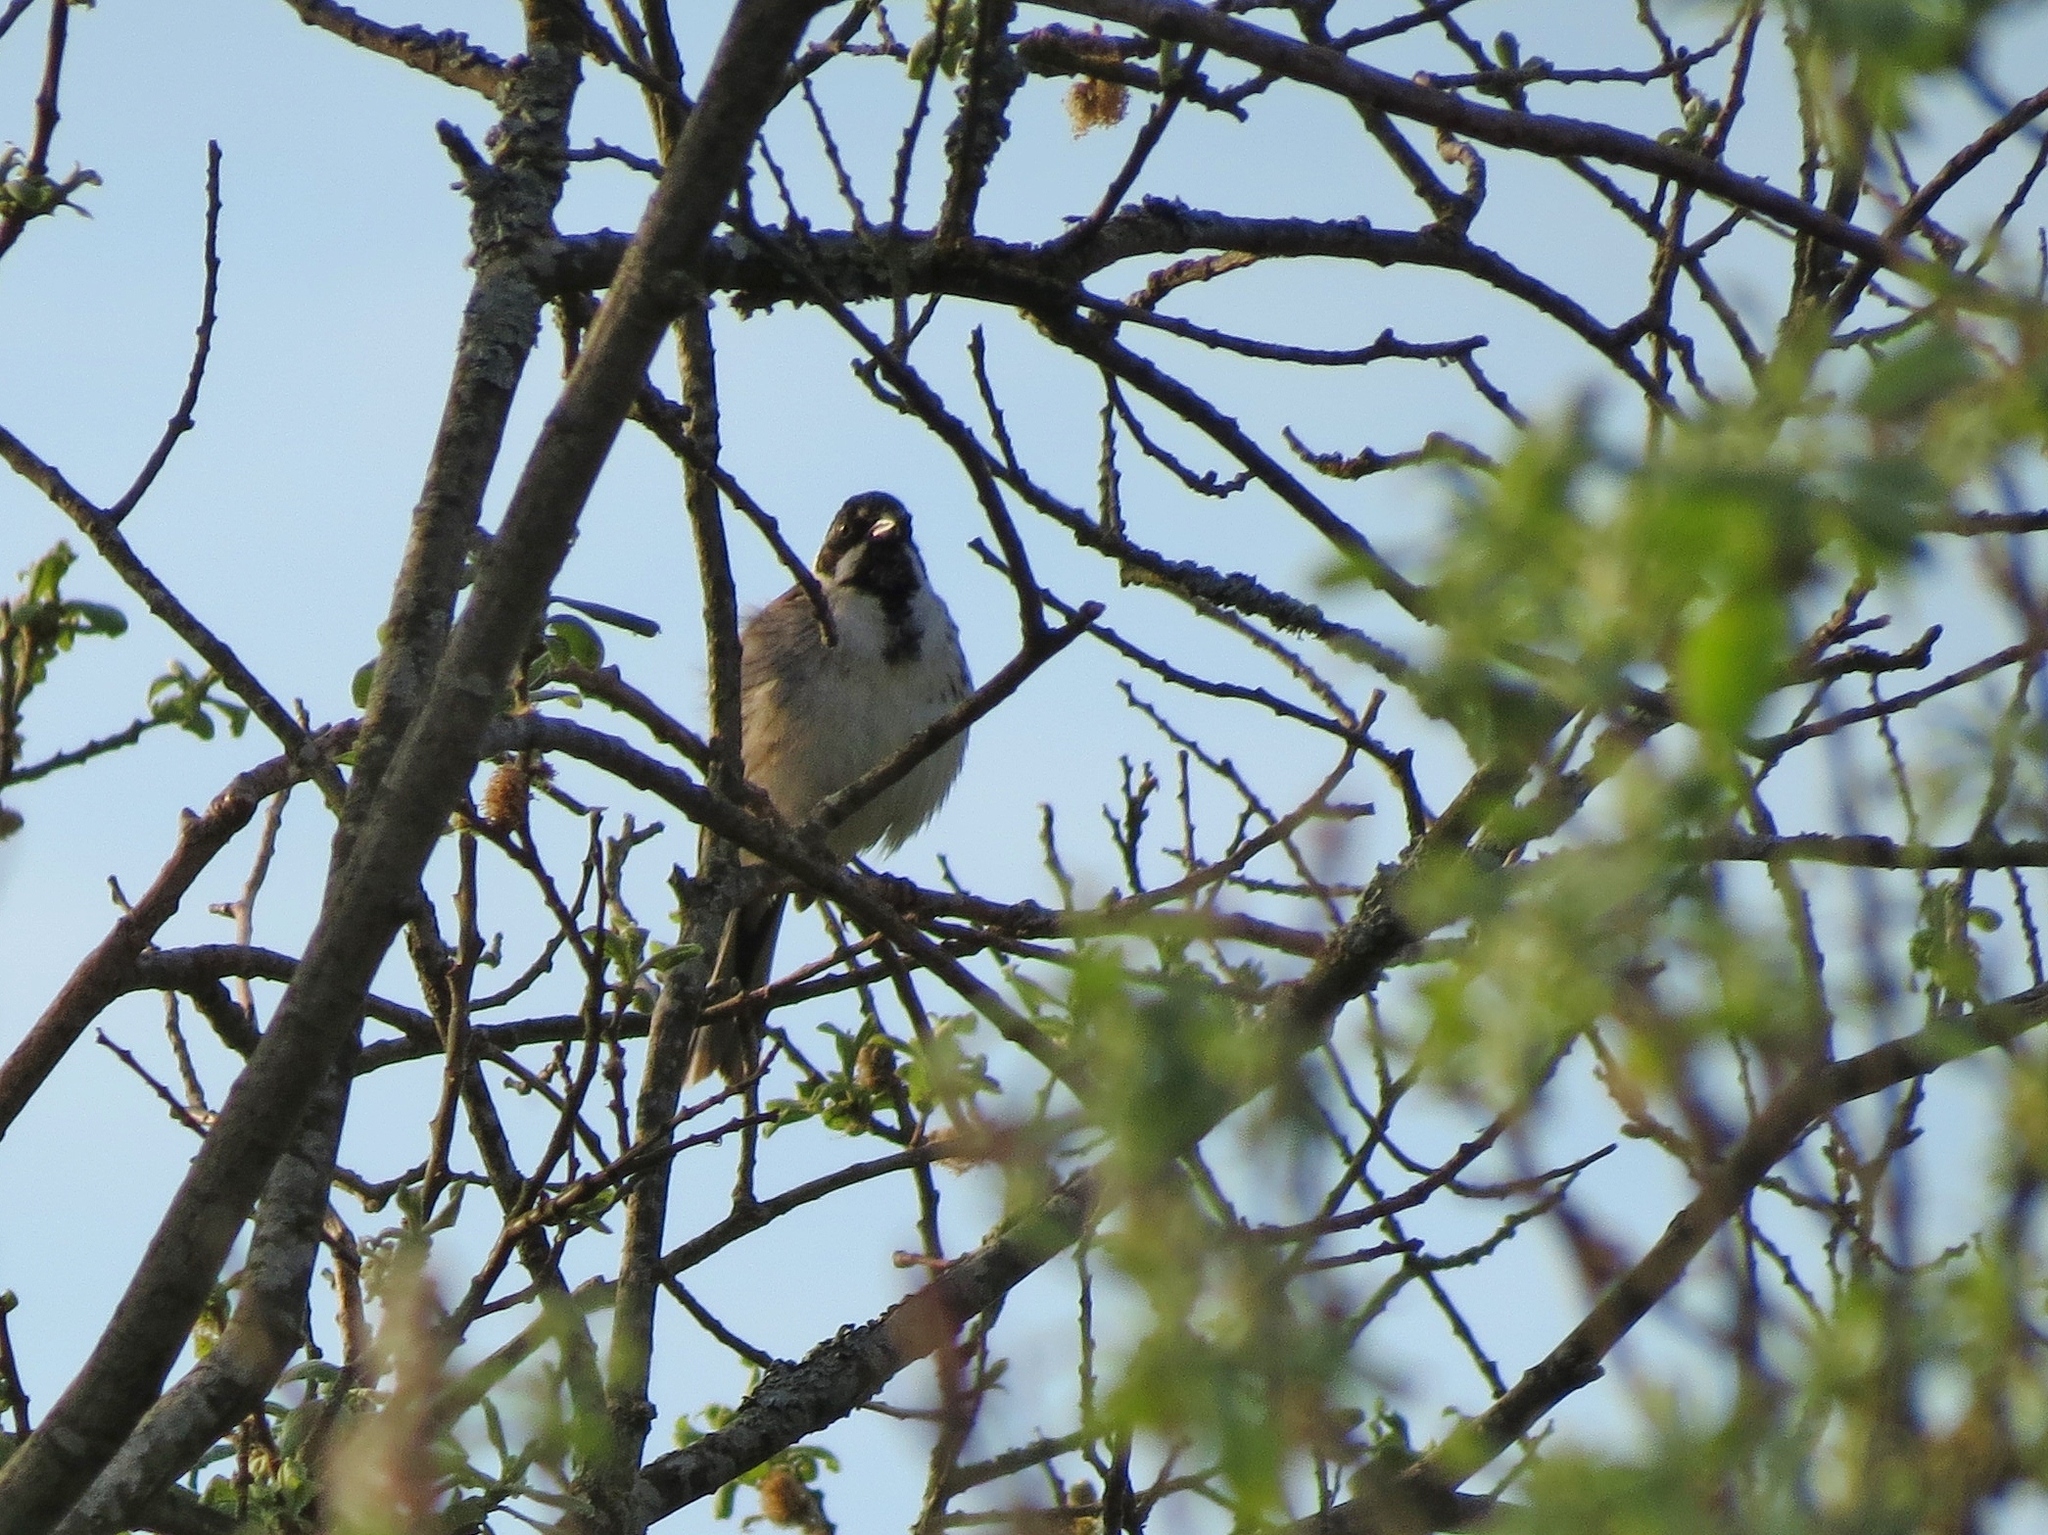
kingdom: Animalia
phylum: Chordata
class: Aves
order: Passeriformes
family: Emberizidae
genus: Emberiza
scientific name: Emberiza schoeniclus
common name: Reed bunting
